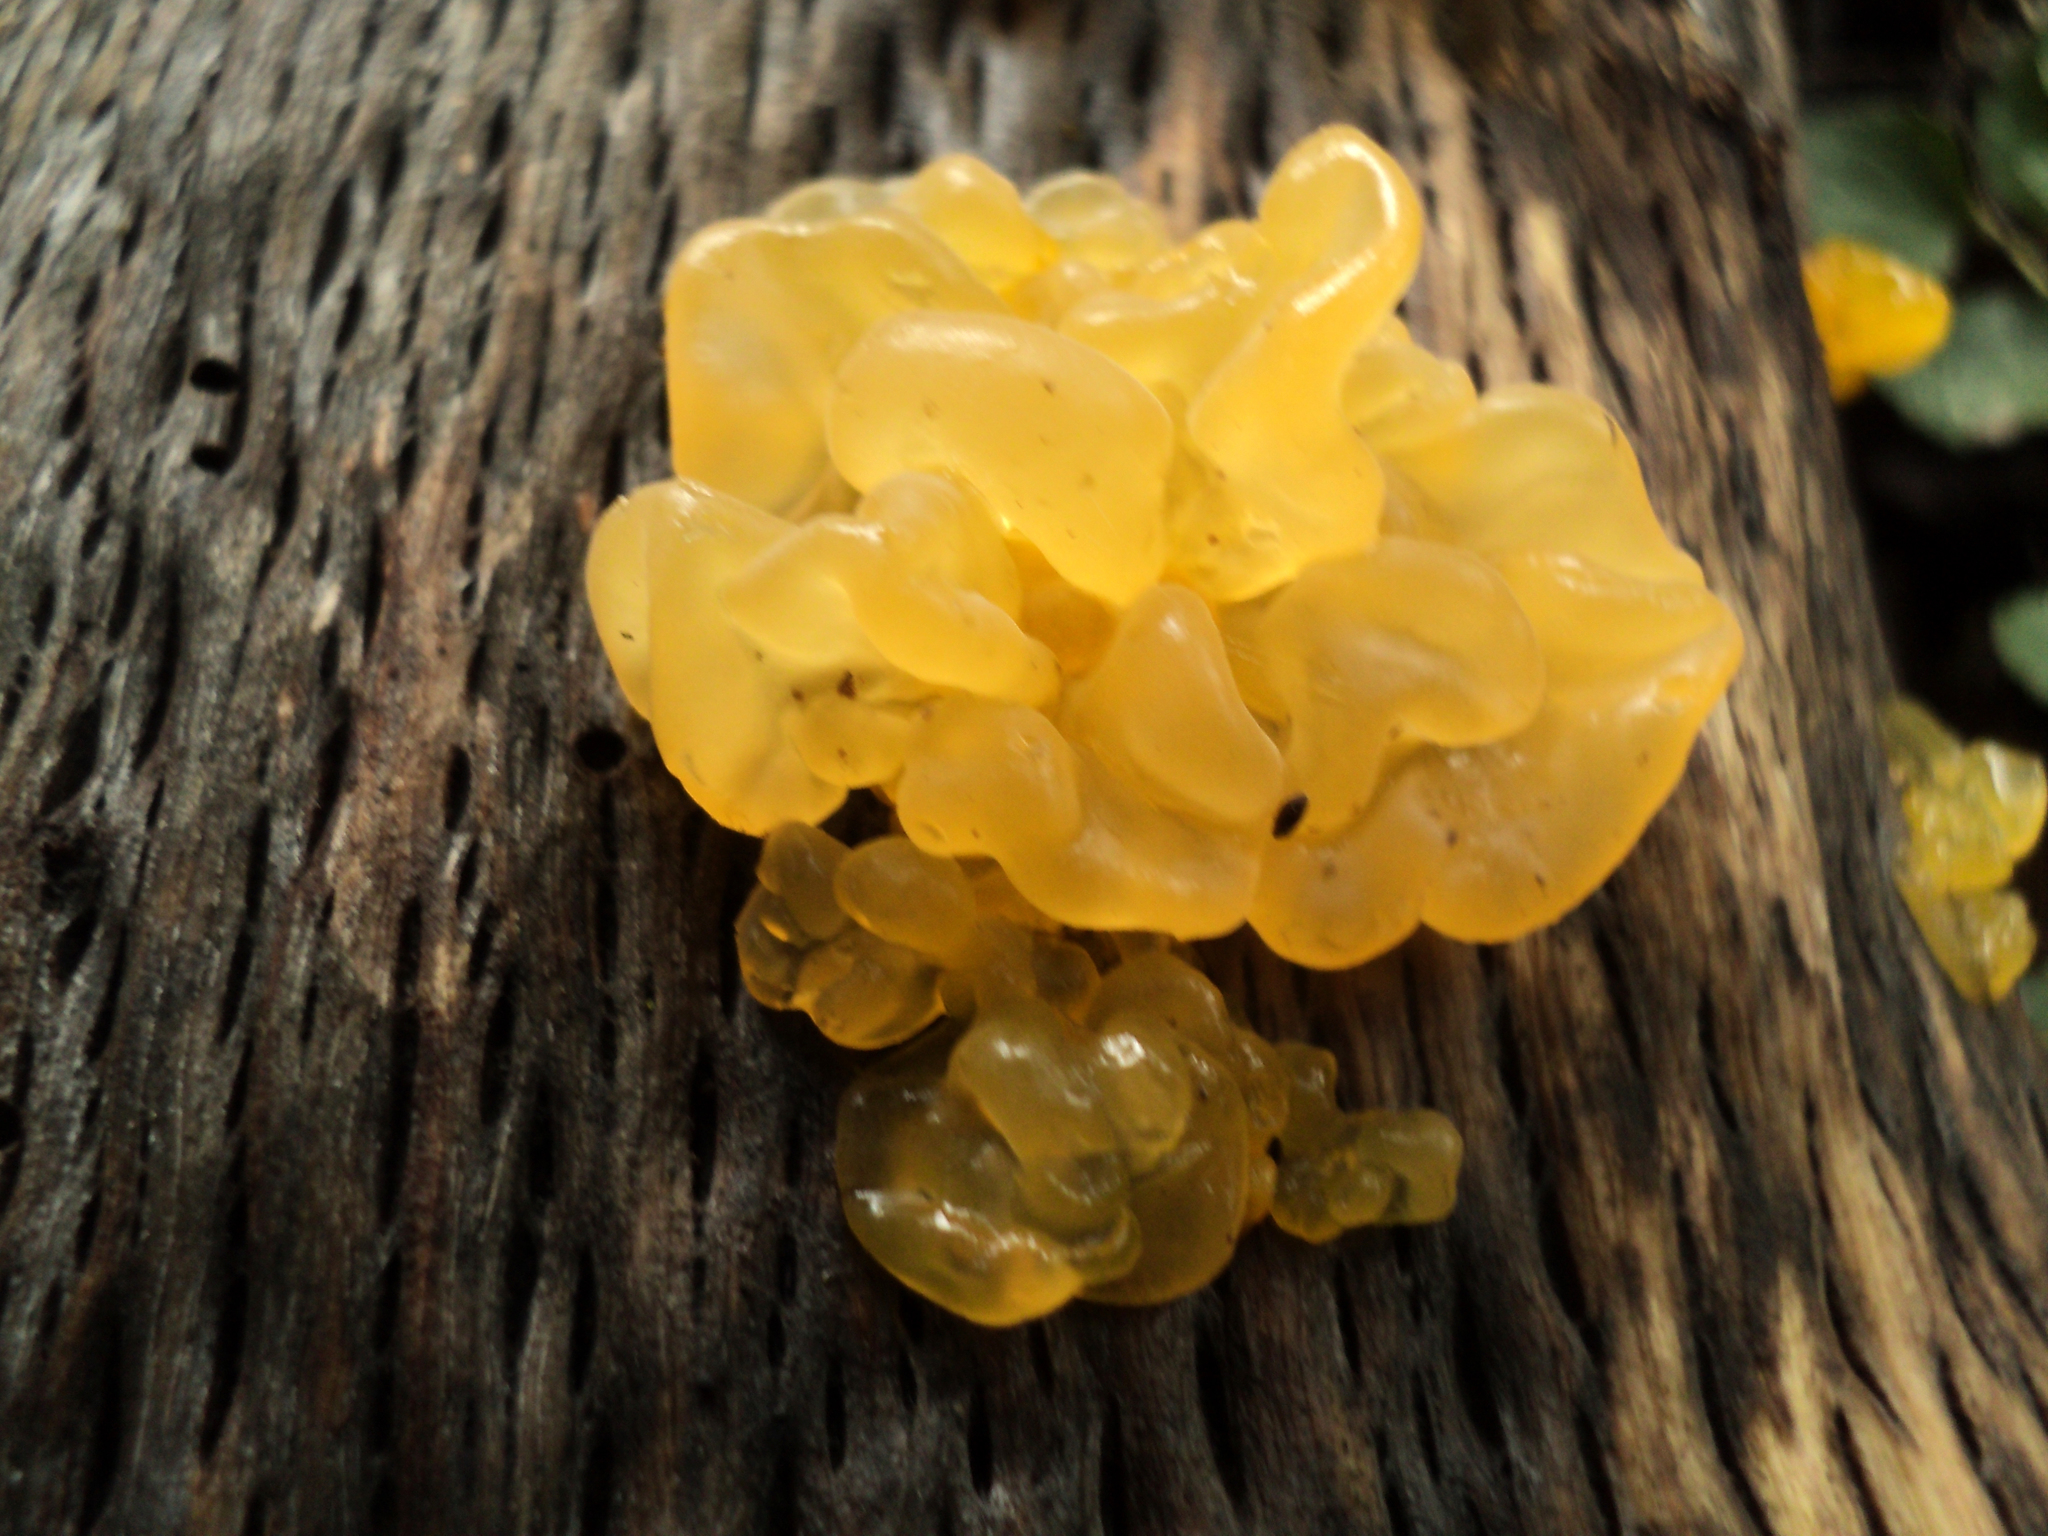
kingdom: Fungi
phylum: Basidiomycota
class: Tremellomycetes
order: Tremellales
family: Naemateliaceae
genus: Naematelia
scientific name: Naematelia aurantia
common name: Golden ear
